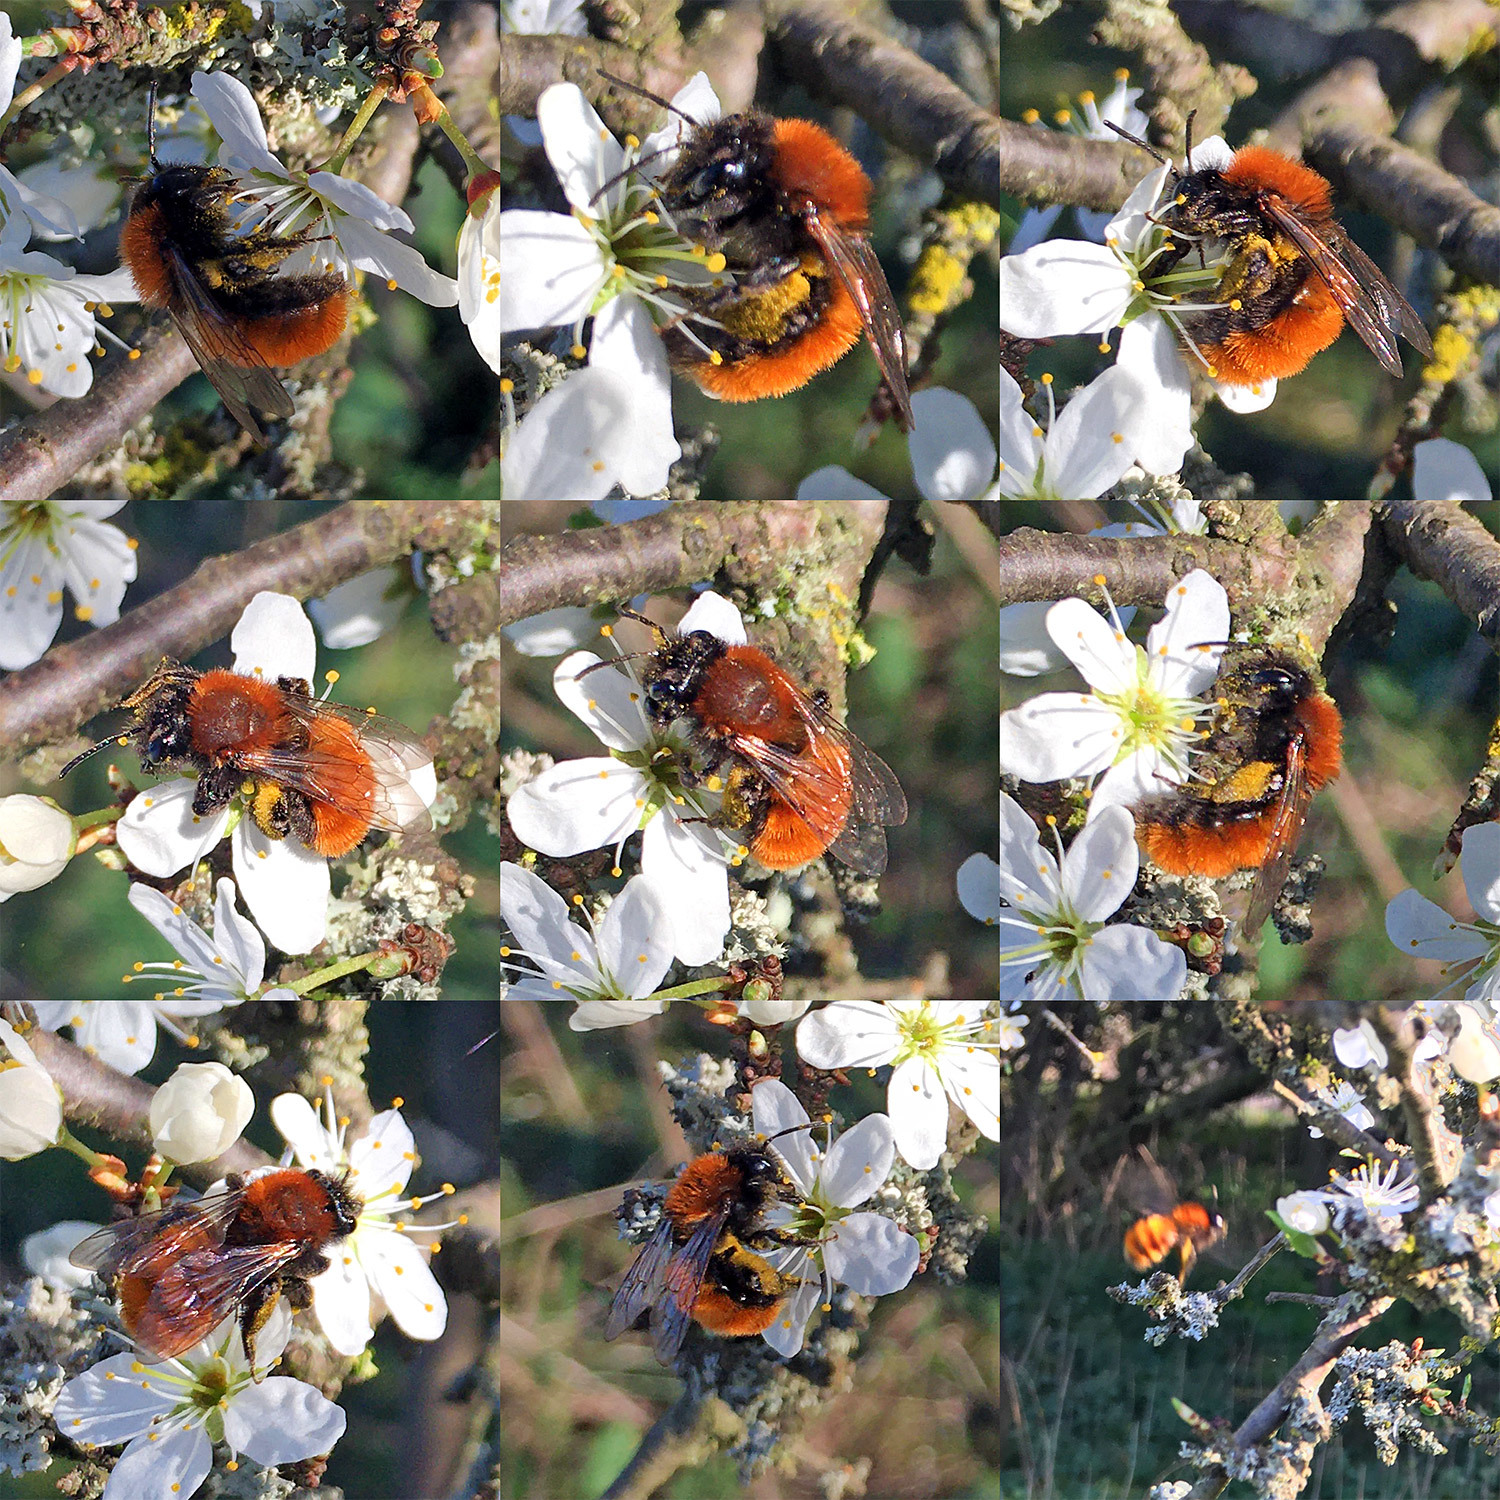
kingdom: Animalia
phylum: Arthropoda
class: Insecta
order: Hymenoptera
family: Andrenidae
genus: Andrena
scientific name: Andrena fulva
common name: Tawny mining bee
